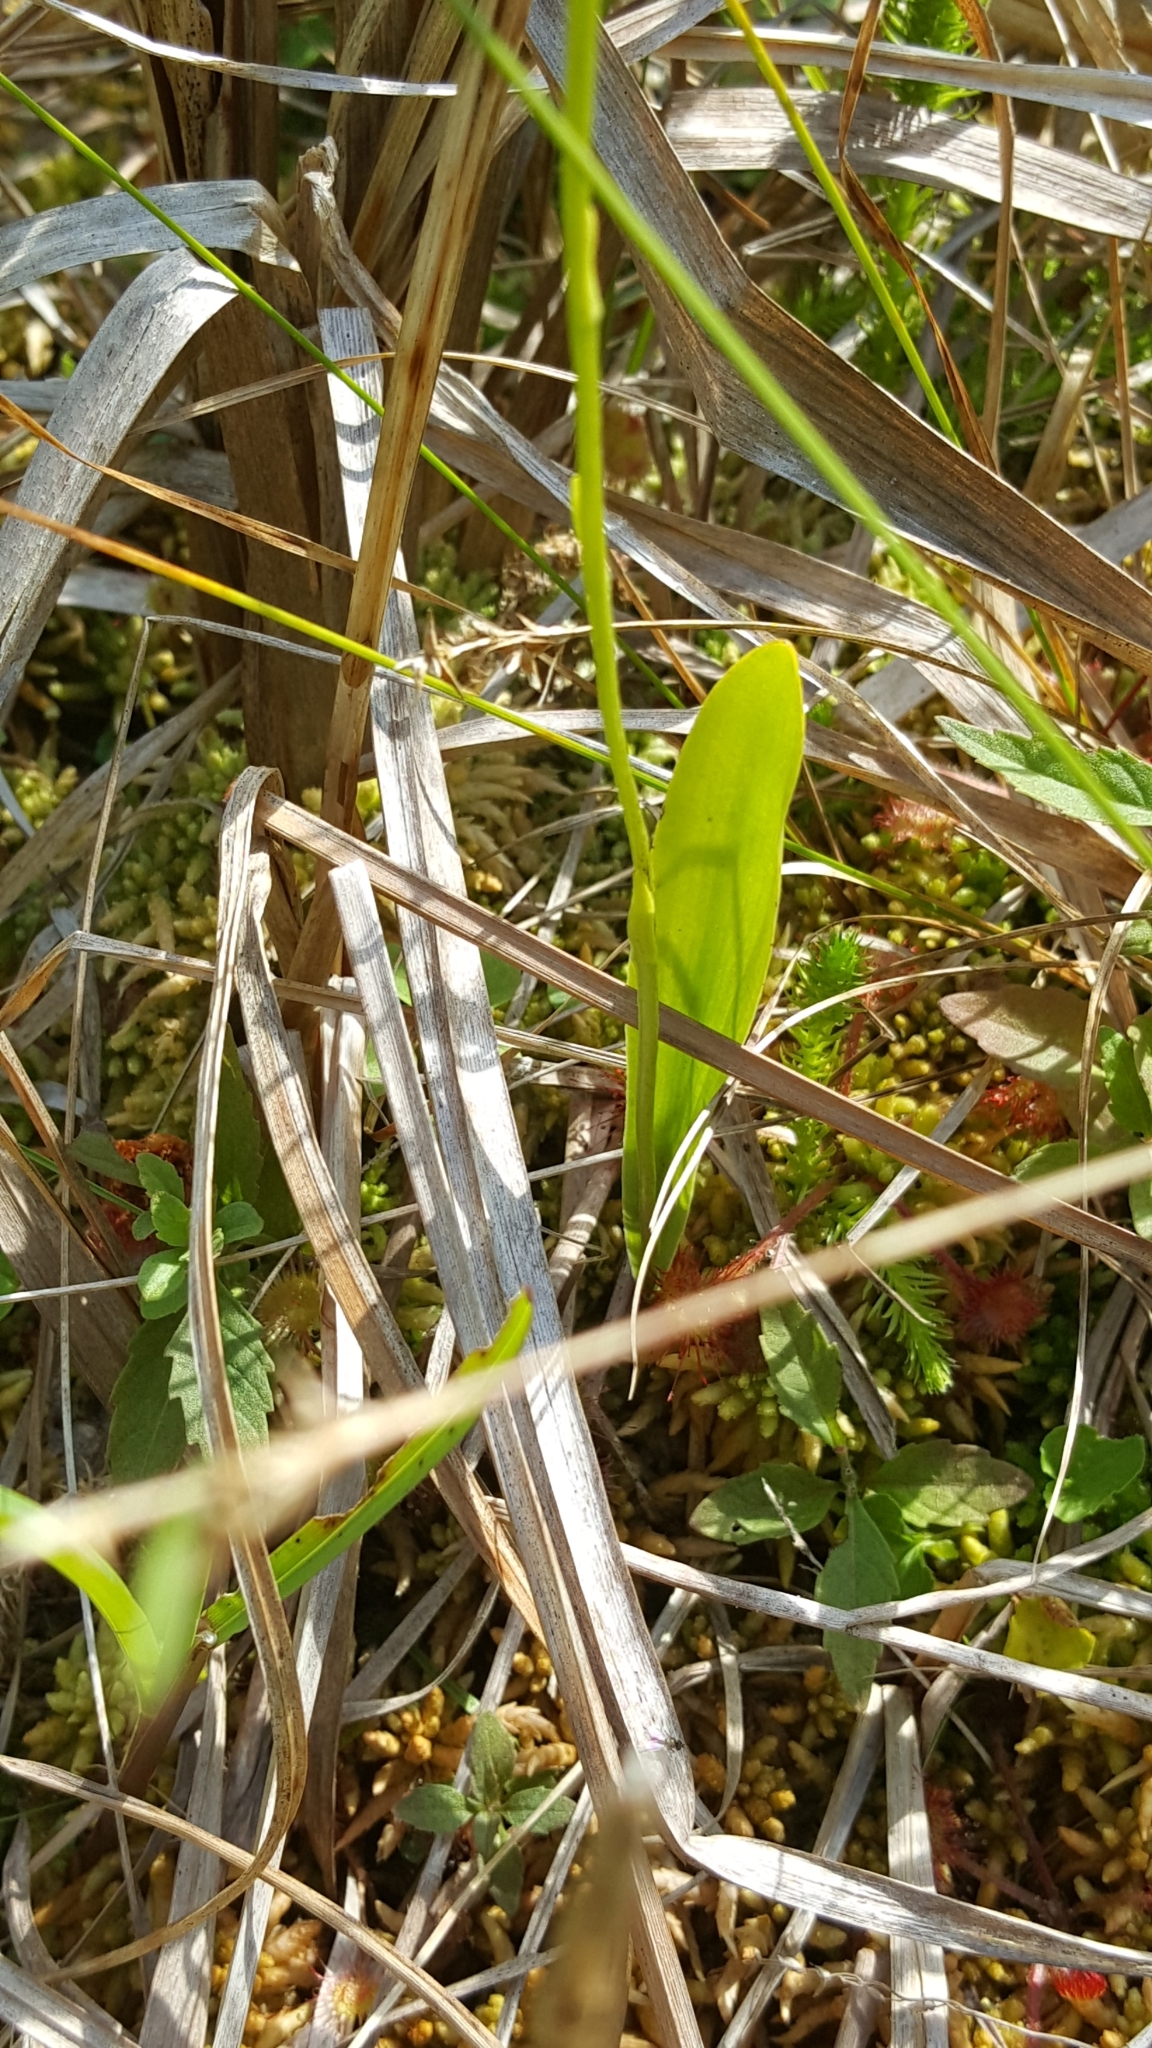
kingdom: Plantae
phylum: Tracheophyta
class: Liliopsida
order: Asparagales
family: Orchidaceae
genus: Platanthera
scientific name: Platanthera clavellata
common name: Club-spur orchid
